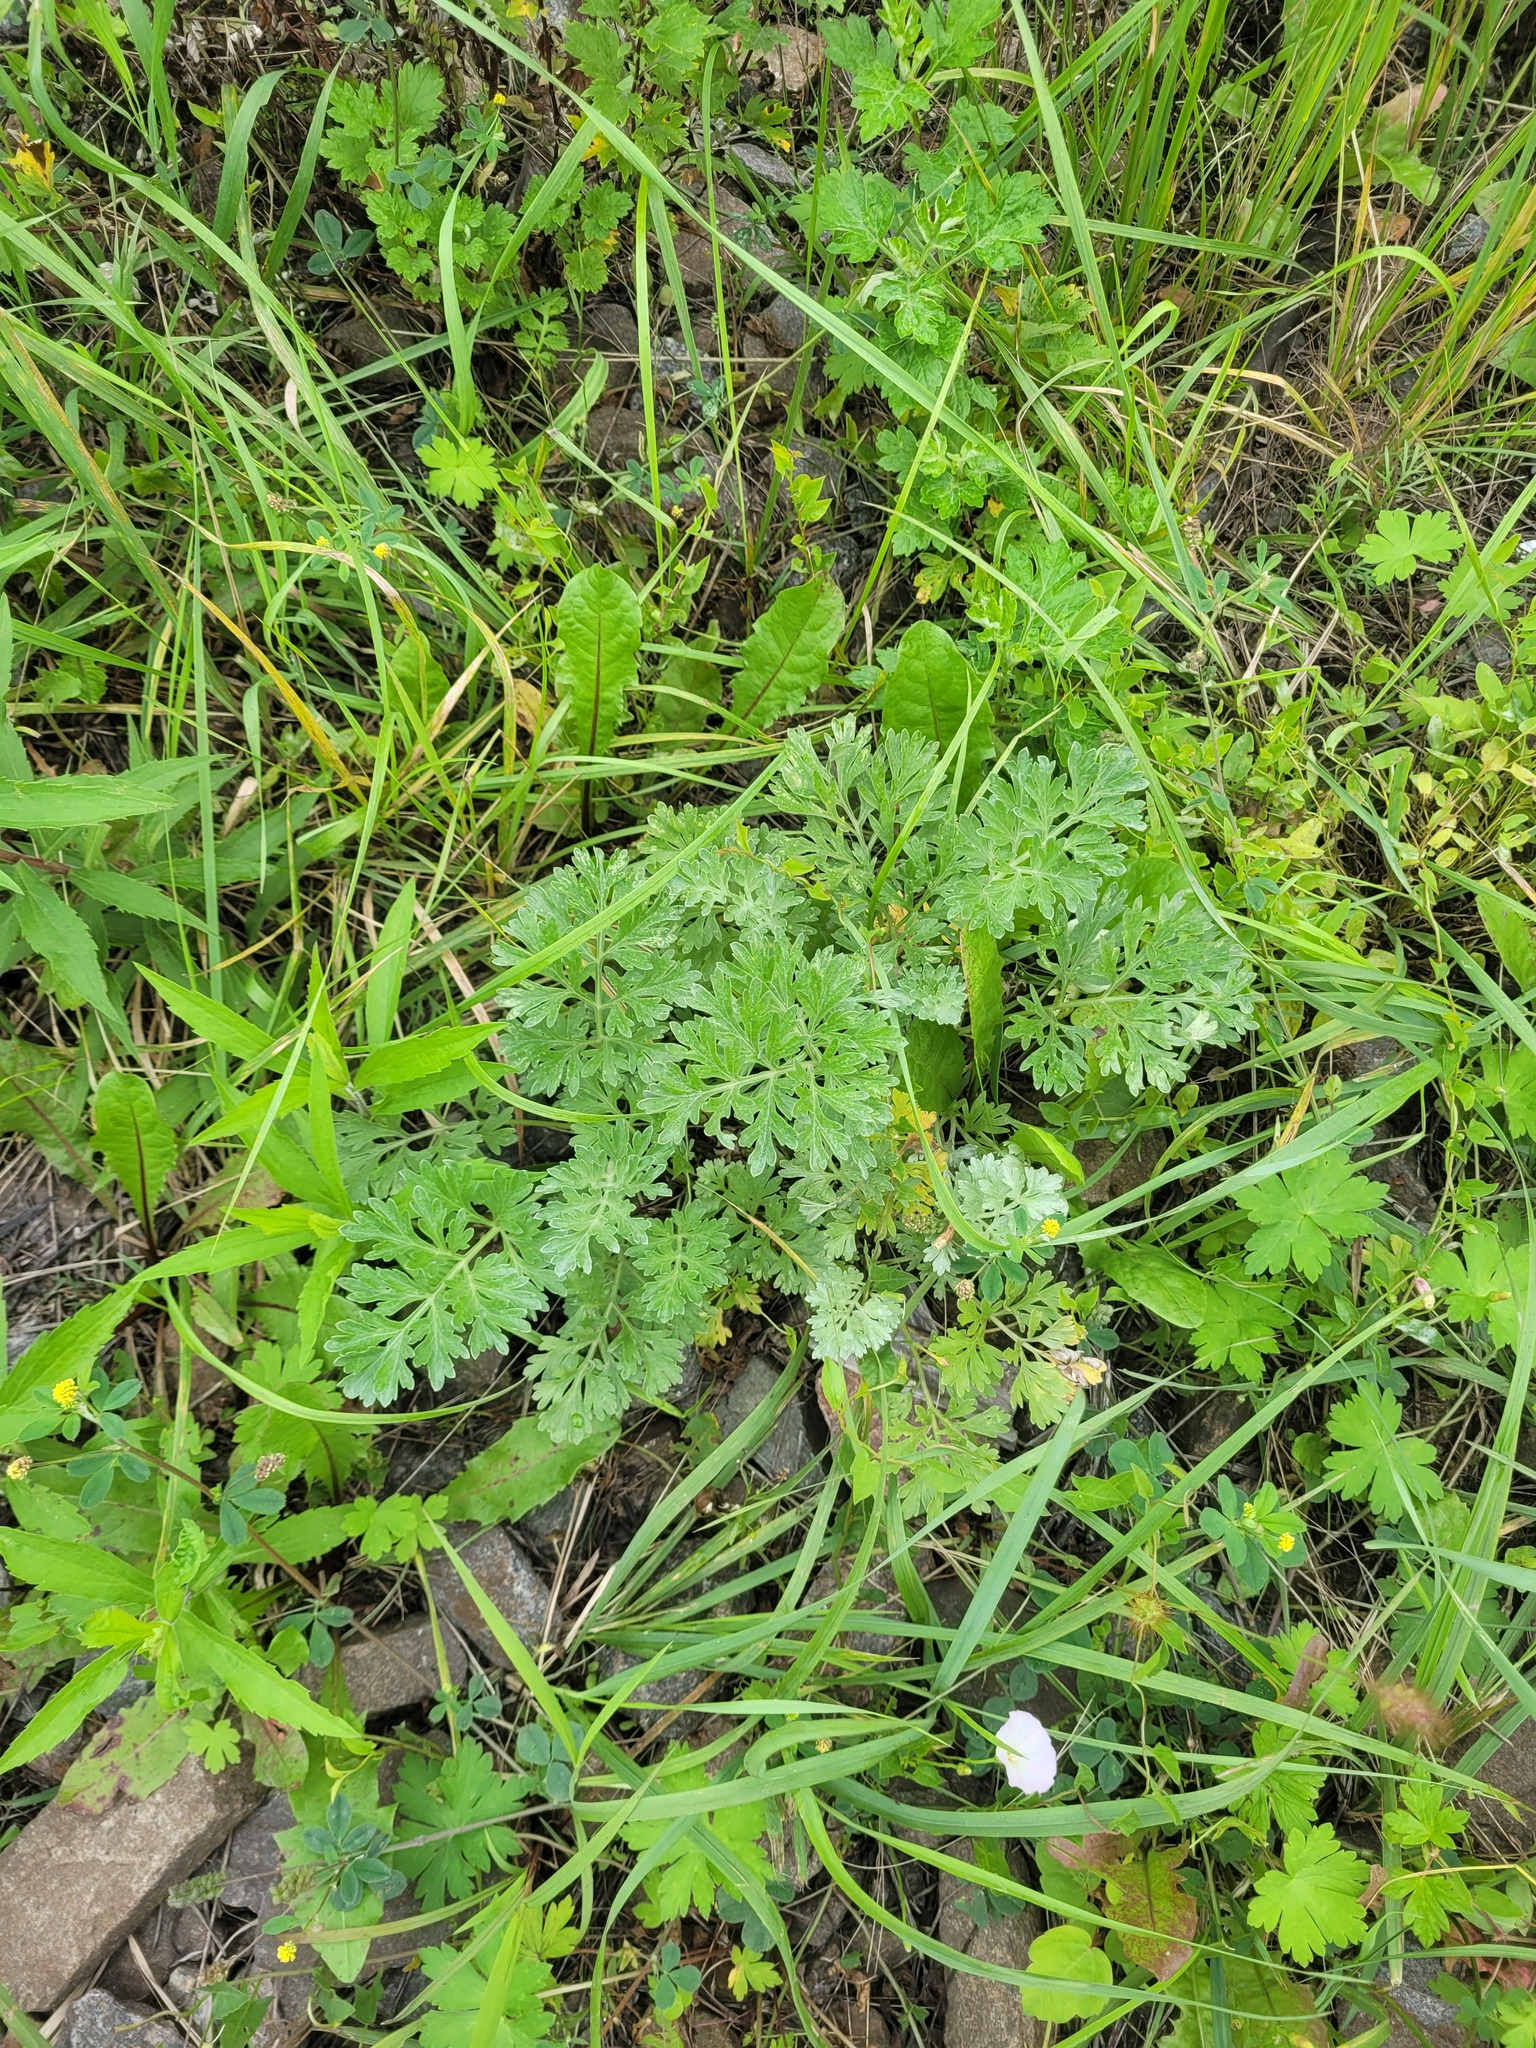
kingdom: Plantae
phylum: Tracheophyta
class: Magnoliopsida
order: Asterales
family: Asteraceae
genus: Artemisia
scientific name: Artemisia absinthium
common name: Wormwood
